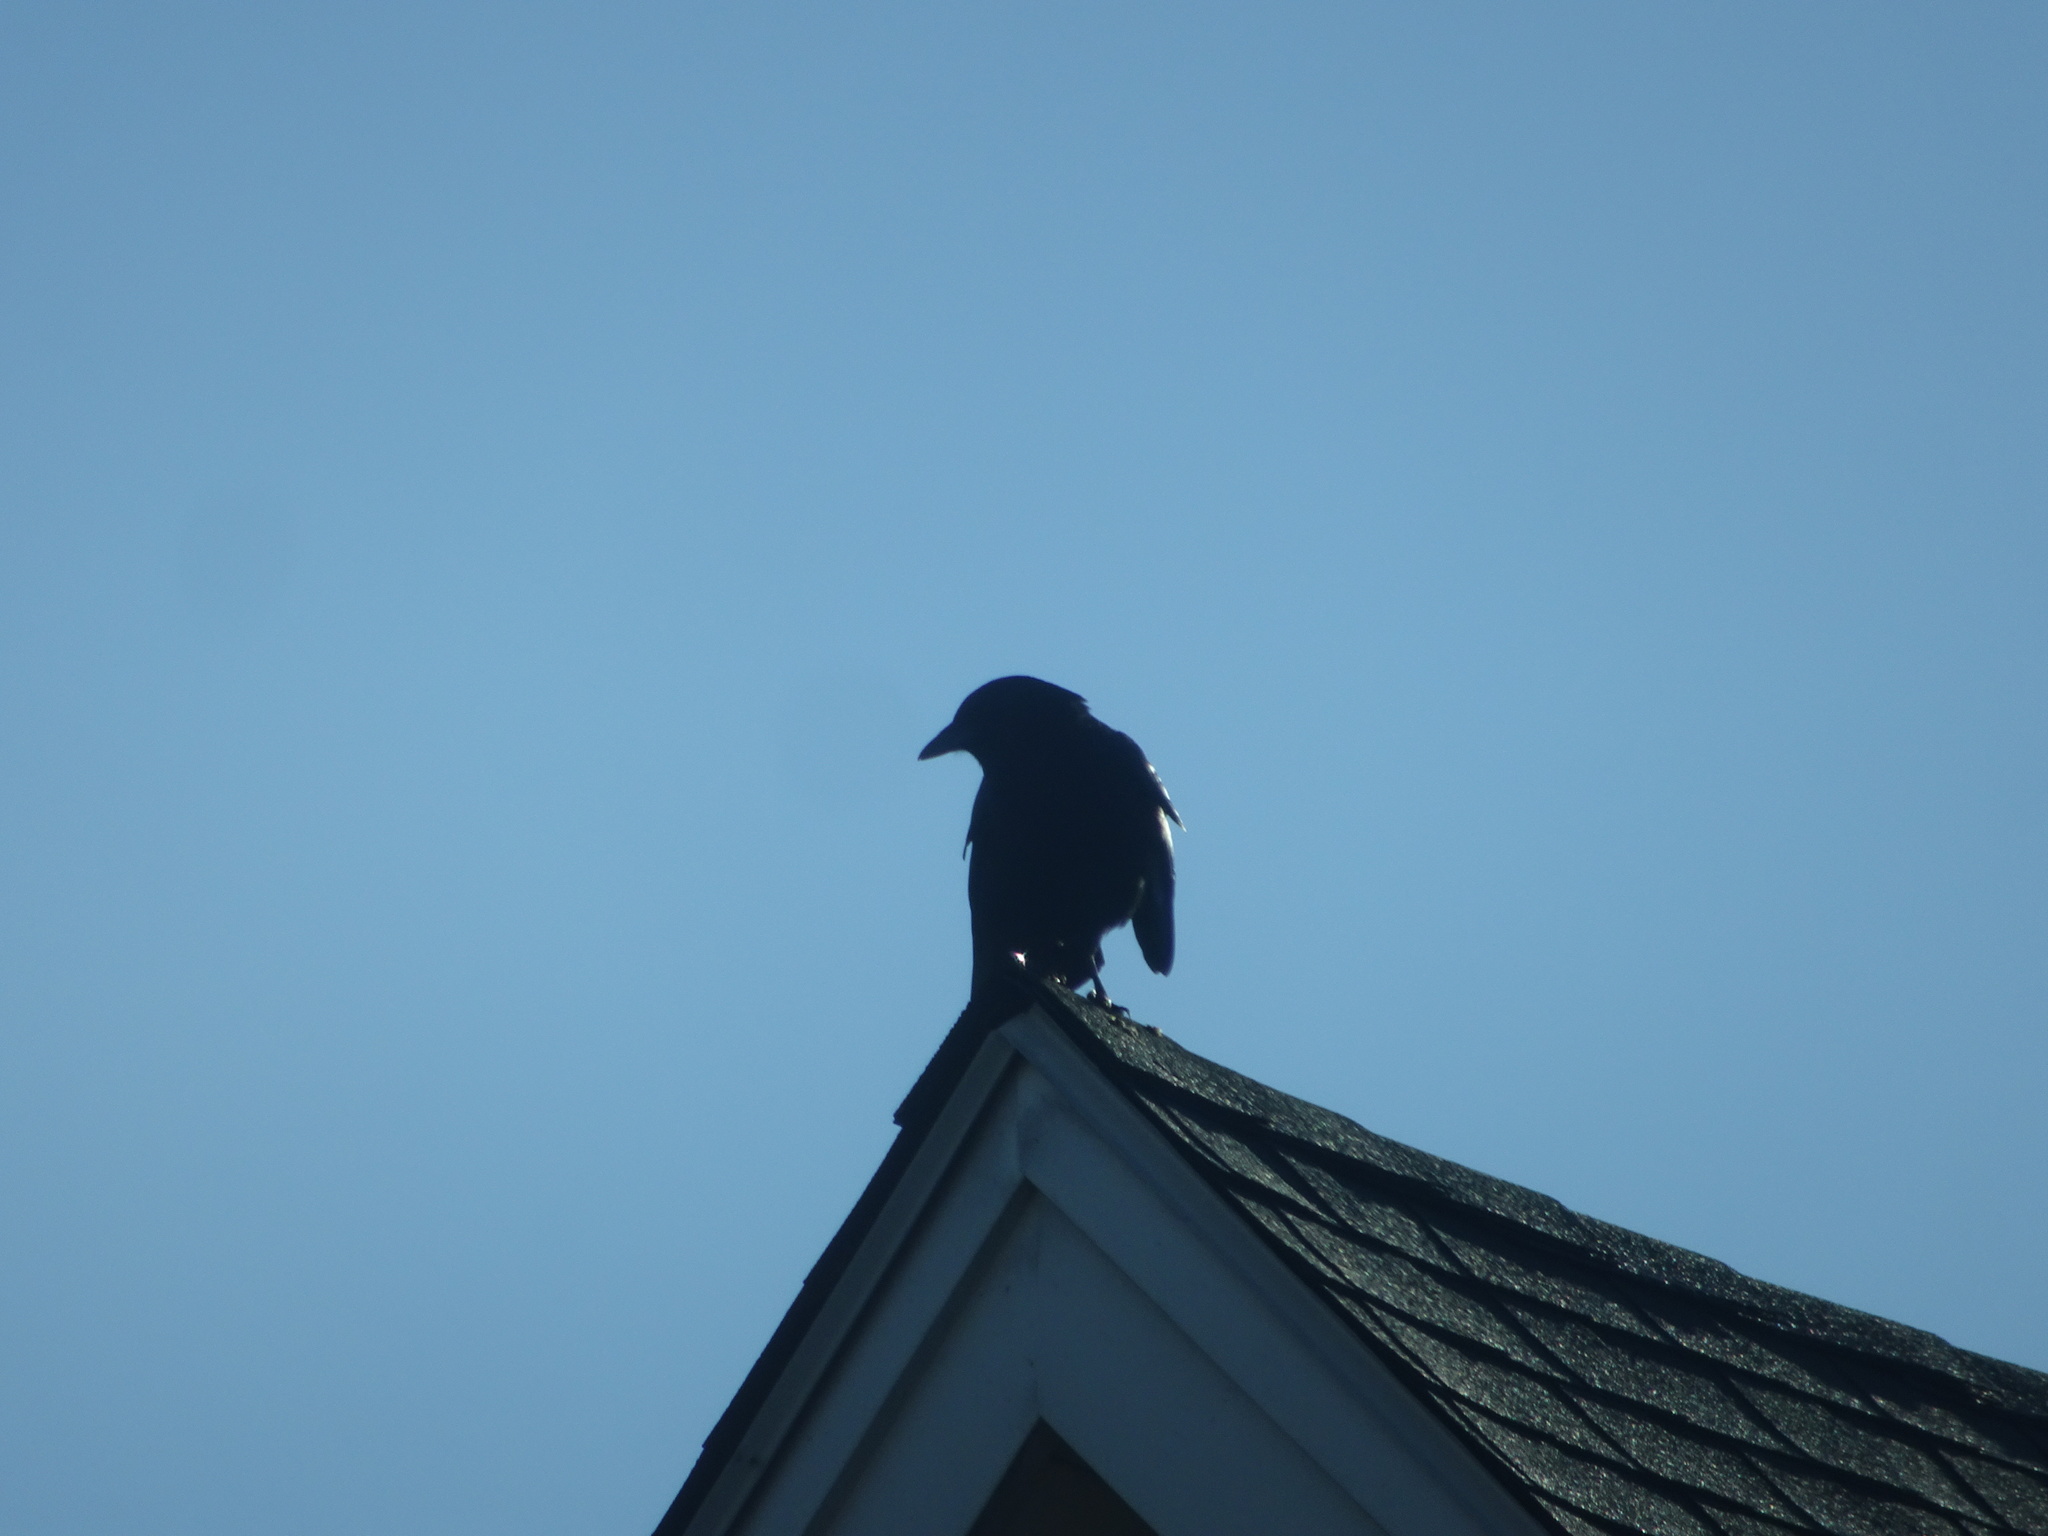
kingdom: Animalia
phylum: Chordata
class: Aves
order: Passeriformes
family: Corvidae
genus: Corvus
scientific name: Corvus brachyrhynchos
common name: American crow
